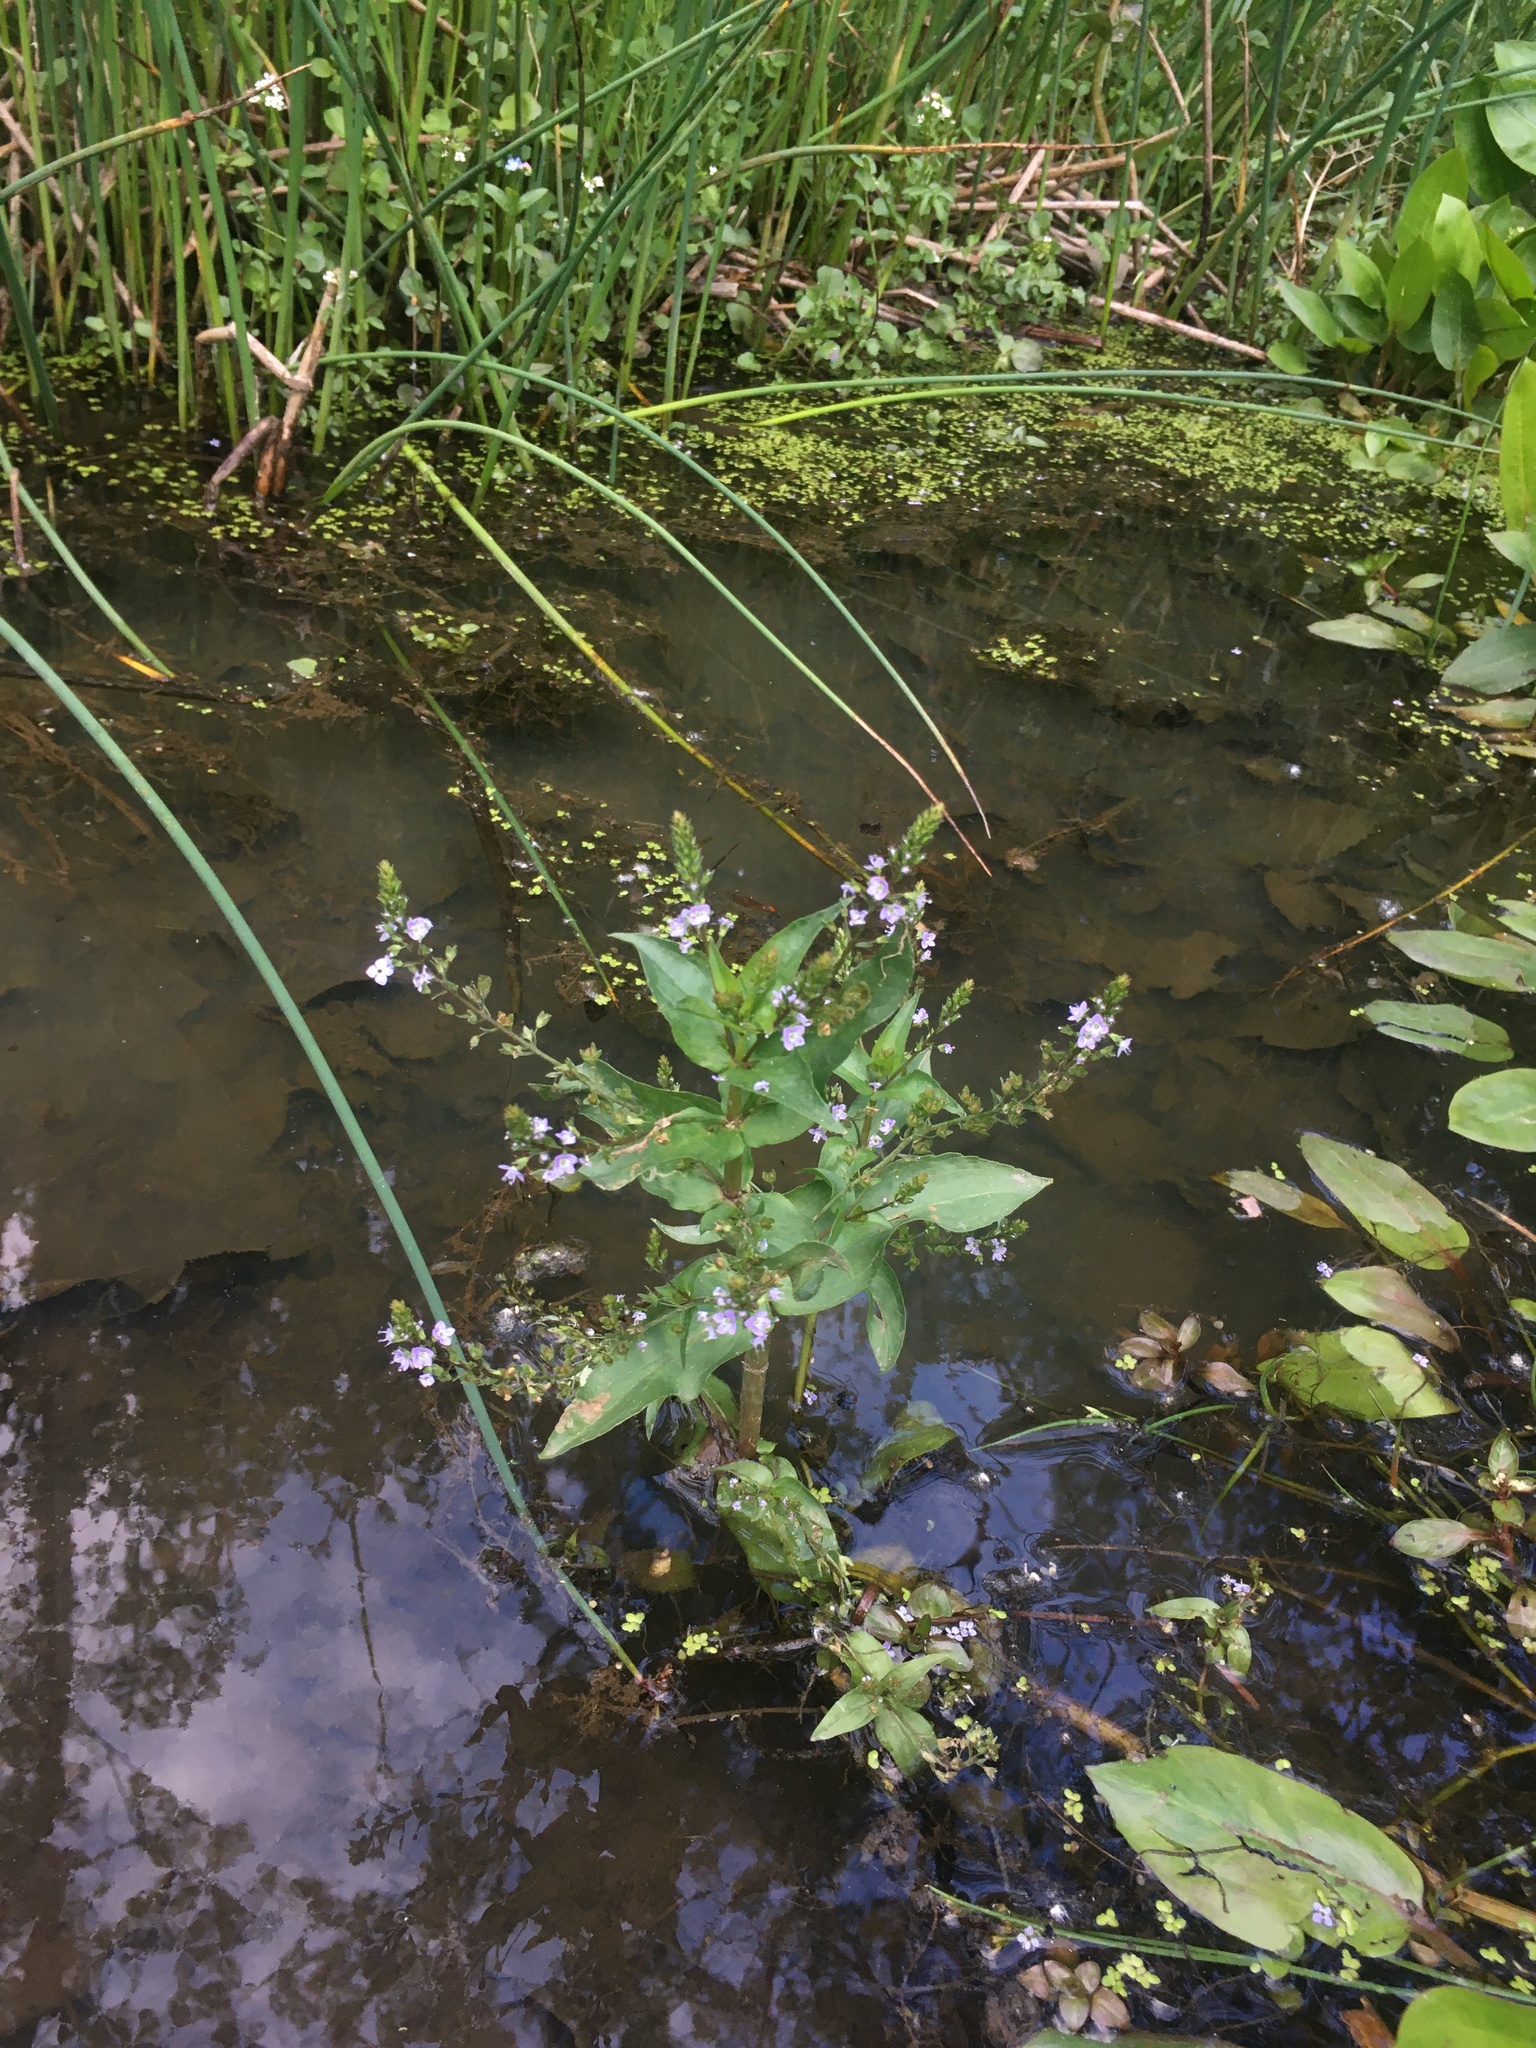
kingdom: Plantae
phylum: Tracheophyta
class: Magnoliopsida
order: Lamiales
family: Plantaginaceae
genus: Veronica
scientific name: Veronica anagallis-aquatica
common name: Water speedwell
